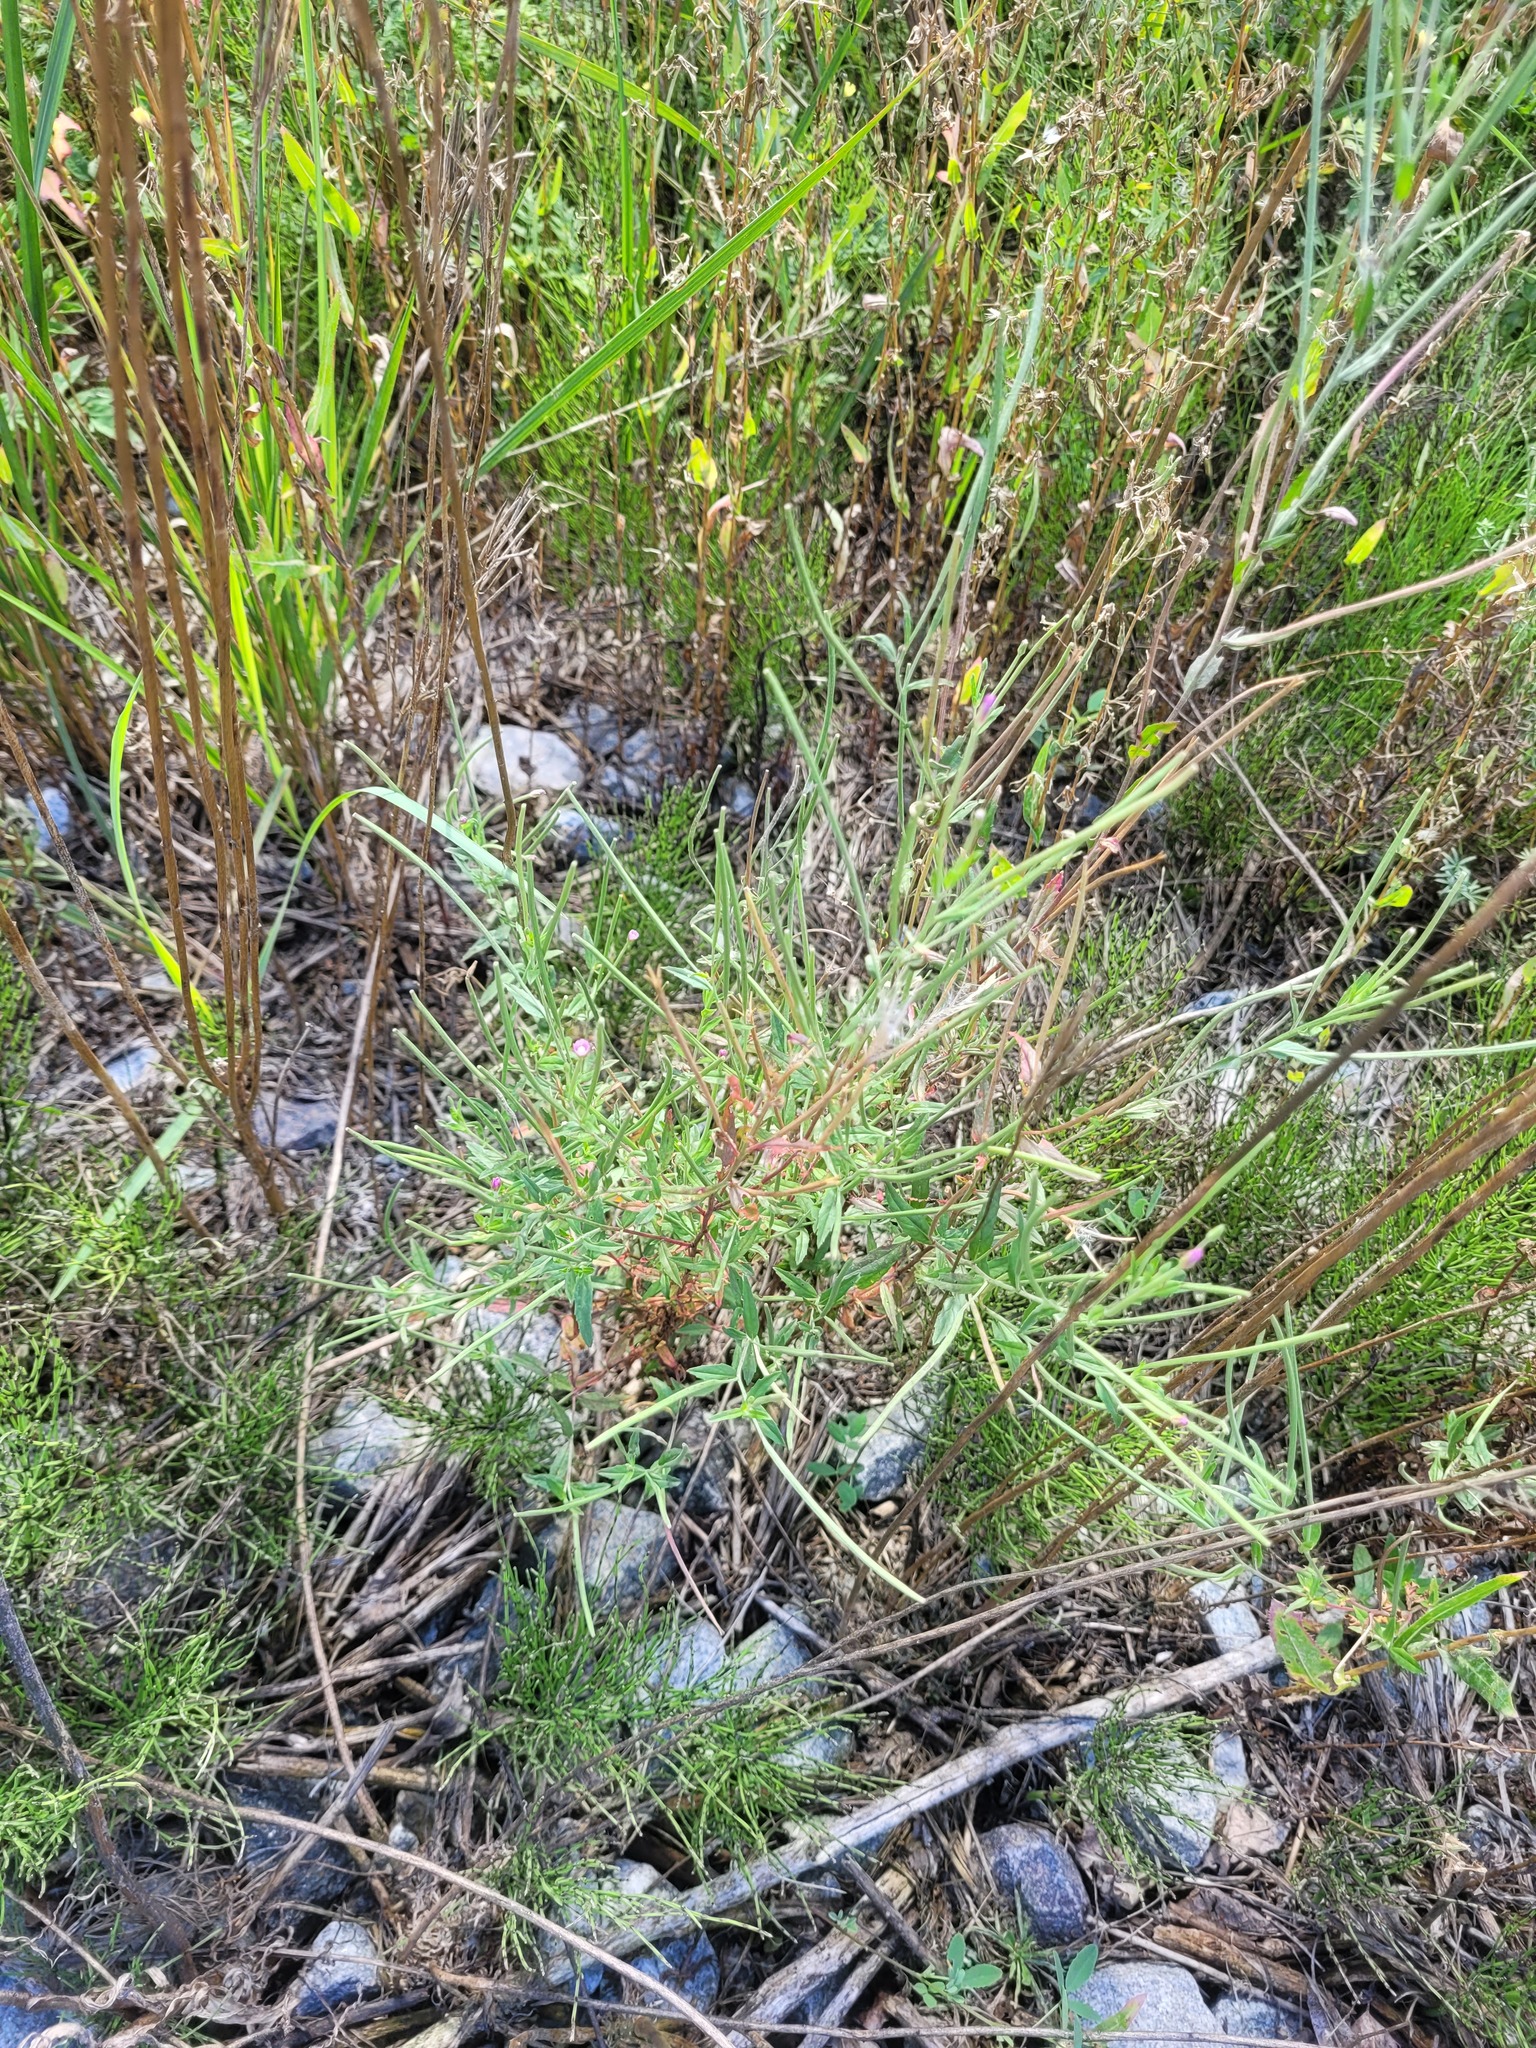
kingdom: Plantae
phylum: Tracheophyta
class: Magnoliopsida
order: Myrtales
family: Onagraceae
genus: Epilobium
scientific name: Epilobium lamyi
